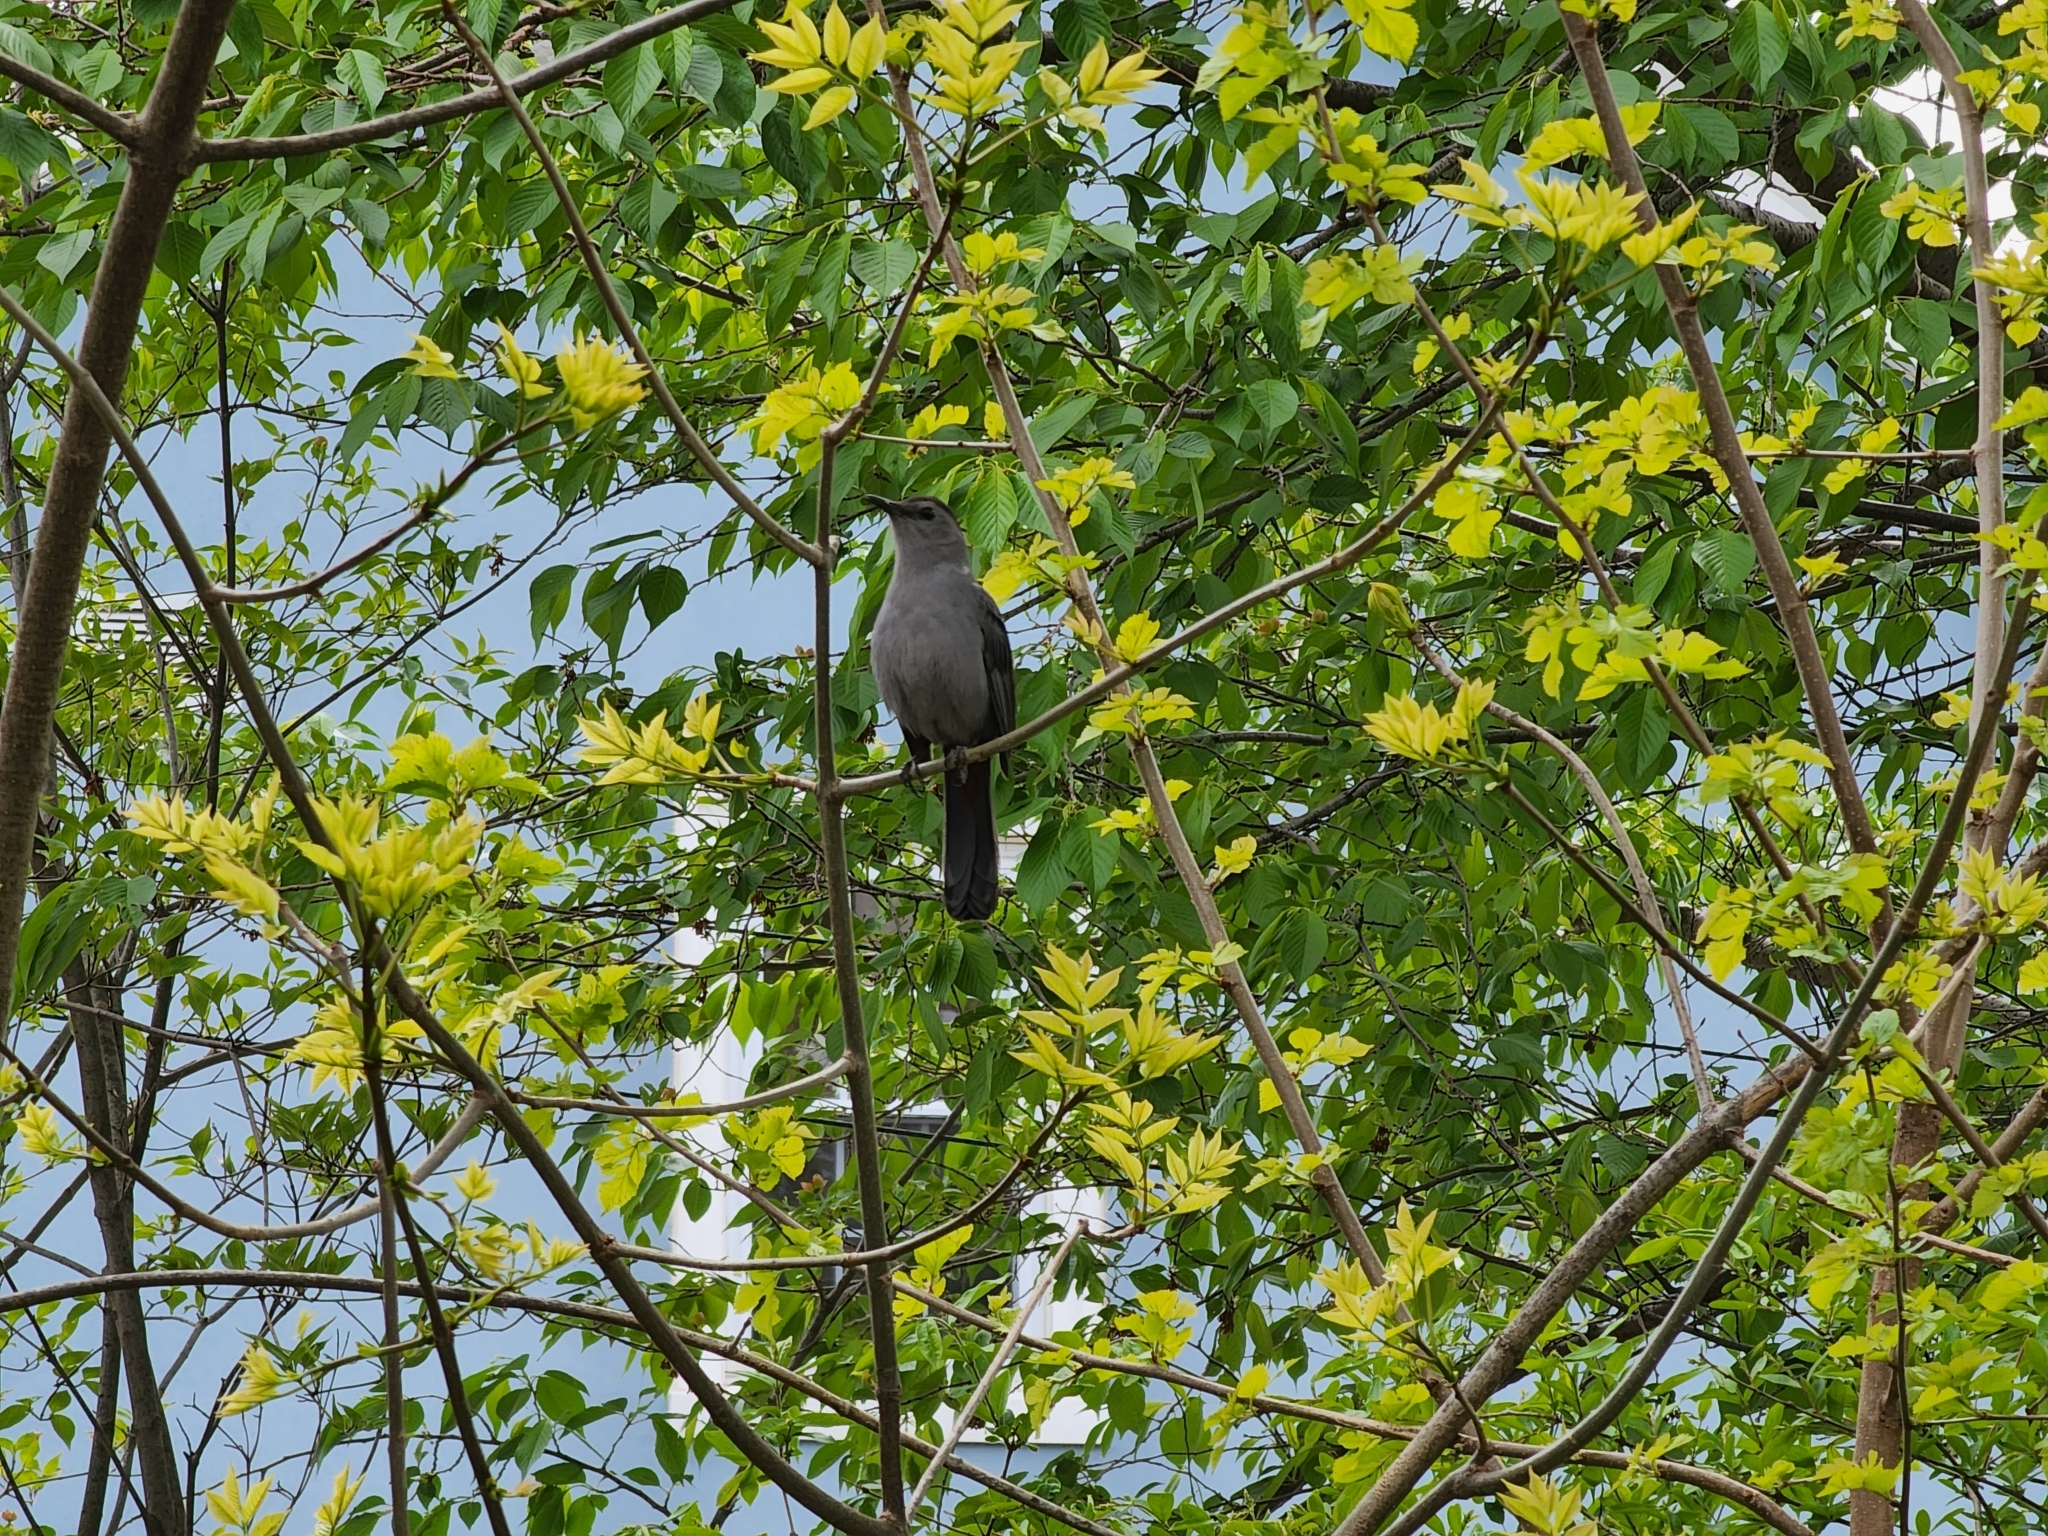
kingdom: Animalia
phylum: Chordata
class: Aves
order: Passeriformes
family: Mimidae
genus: Dumetella
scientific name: Dumetella carolinensis
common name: Gray catbird
